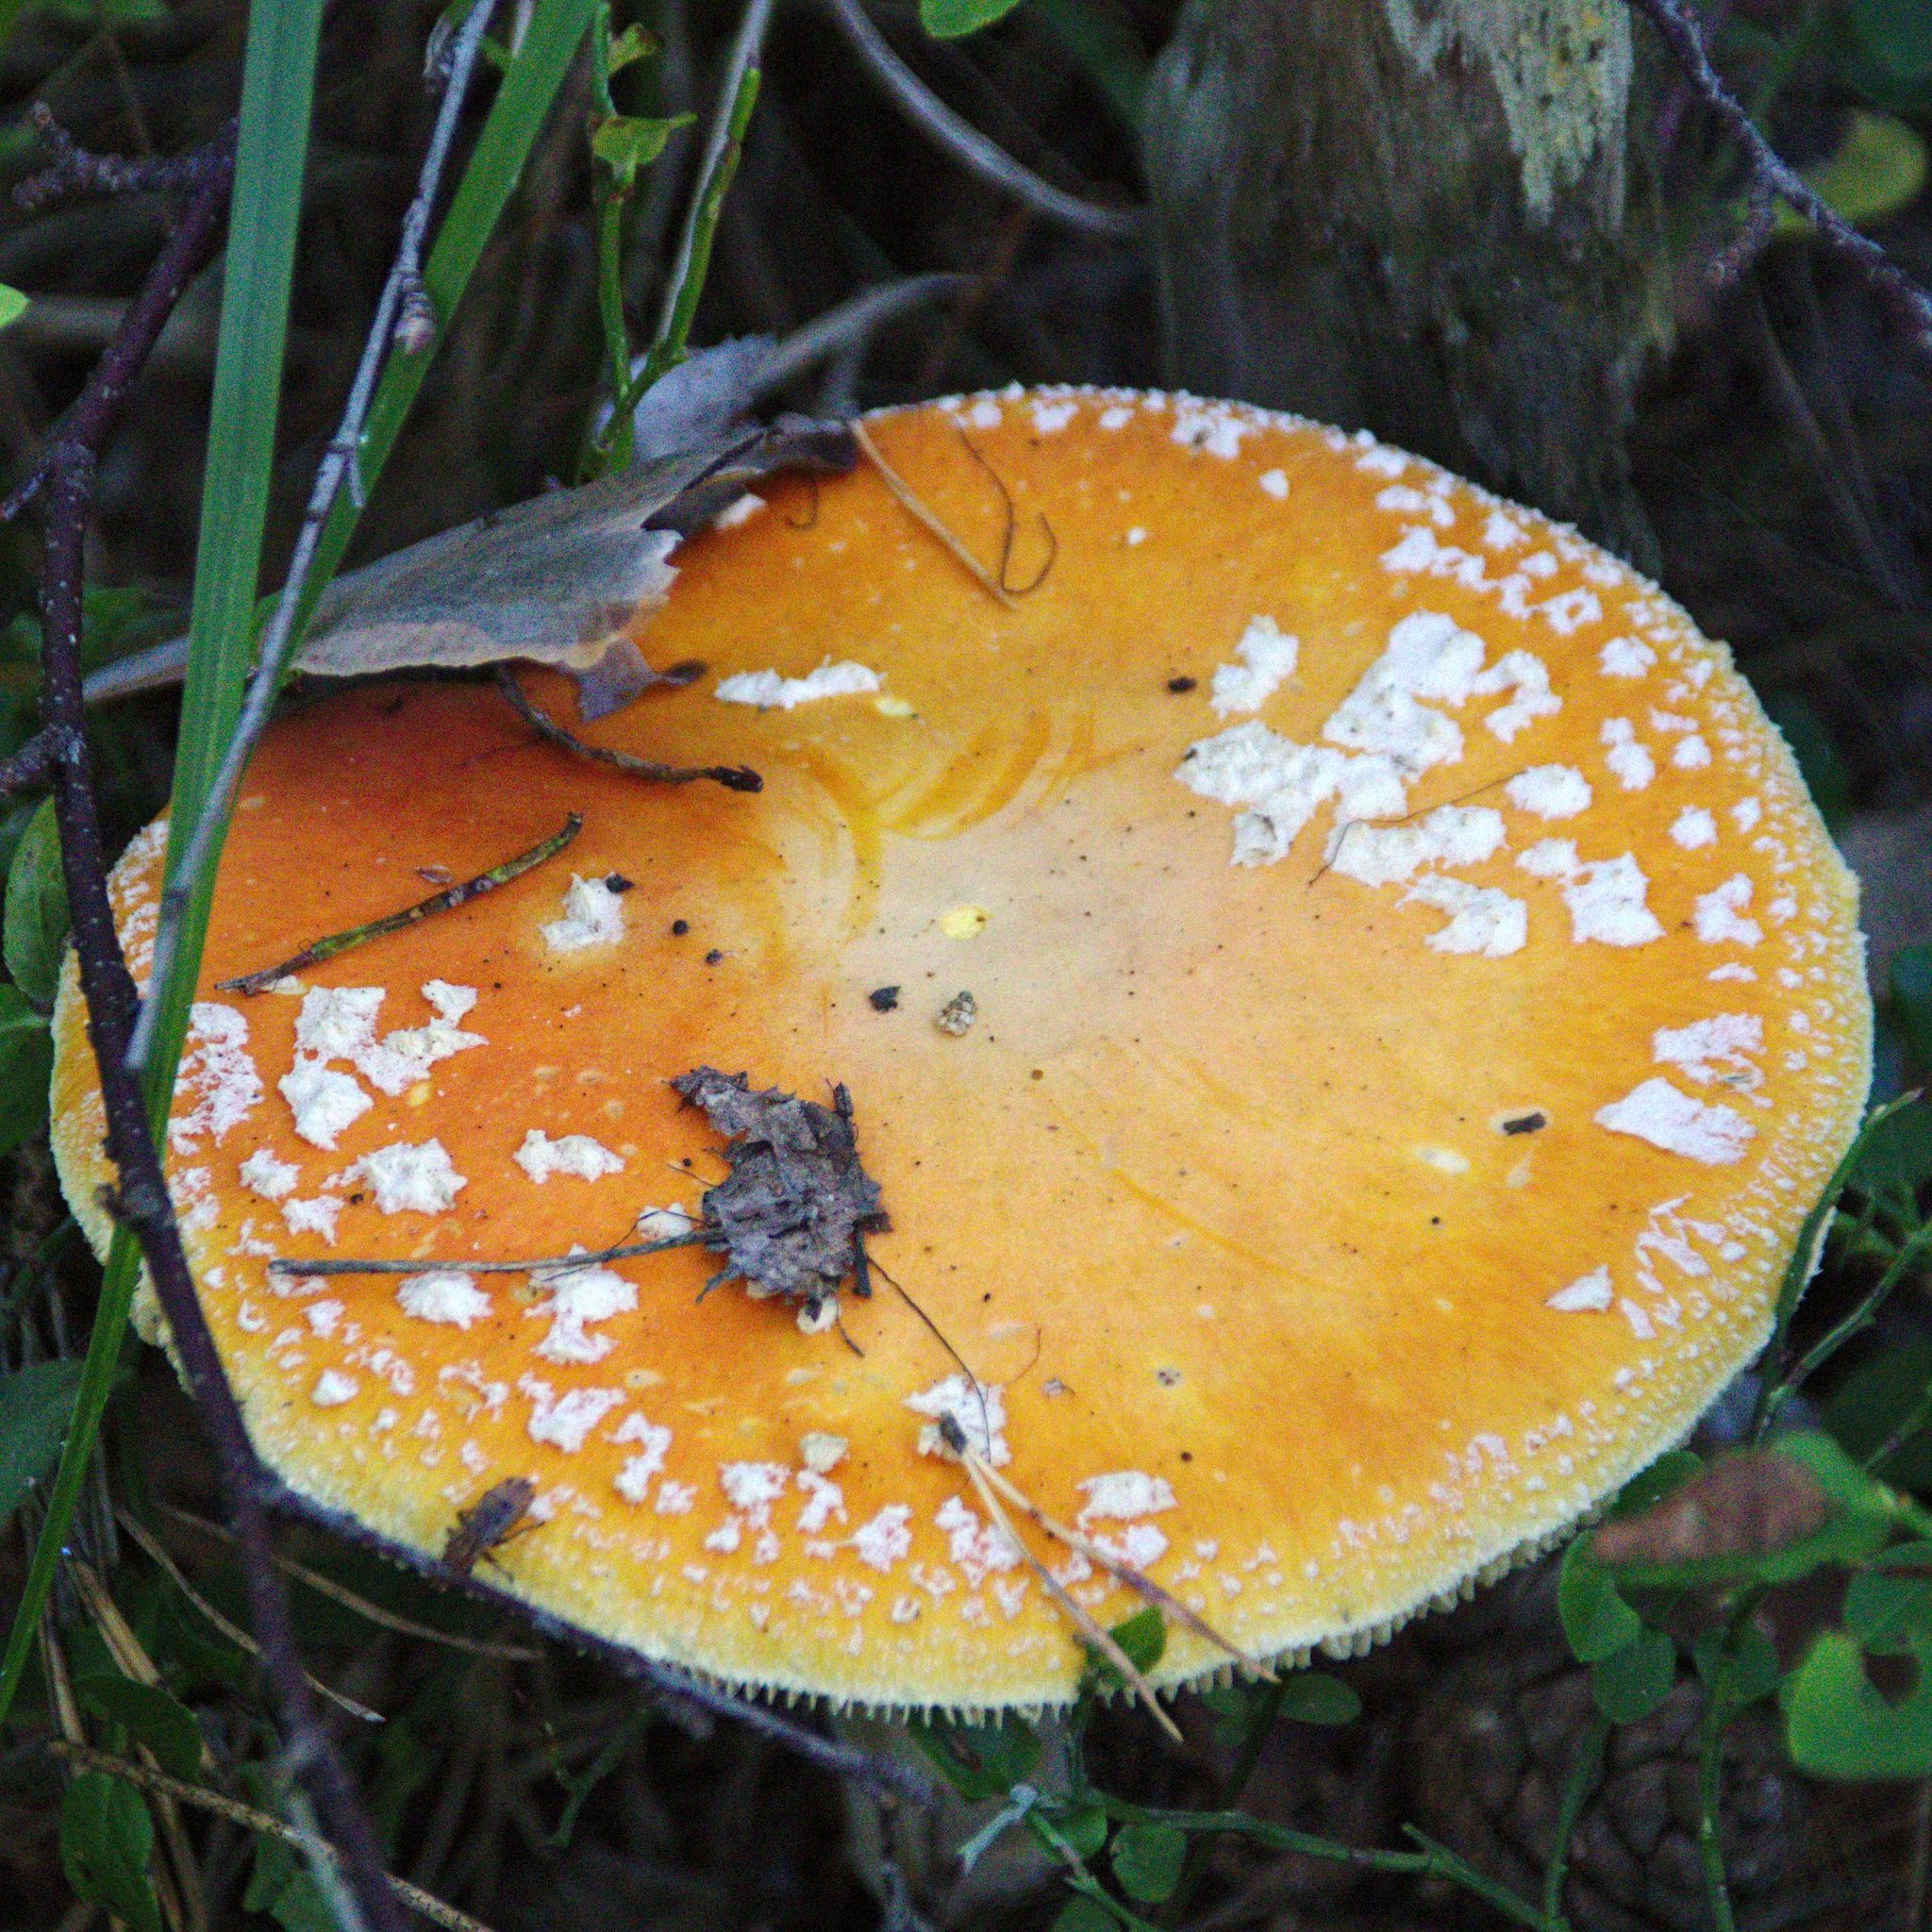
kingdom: Fungi
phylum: Basidiomycota
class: Agaricomycetes
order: Agaricales
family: Amanitaceae
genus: Amanita
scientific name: Amanita muscaria
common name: Fly agaric
